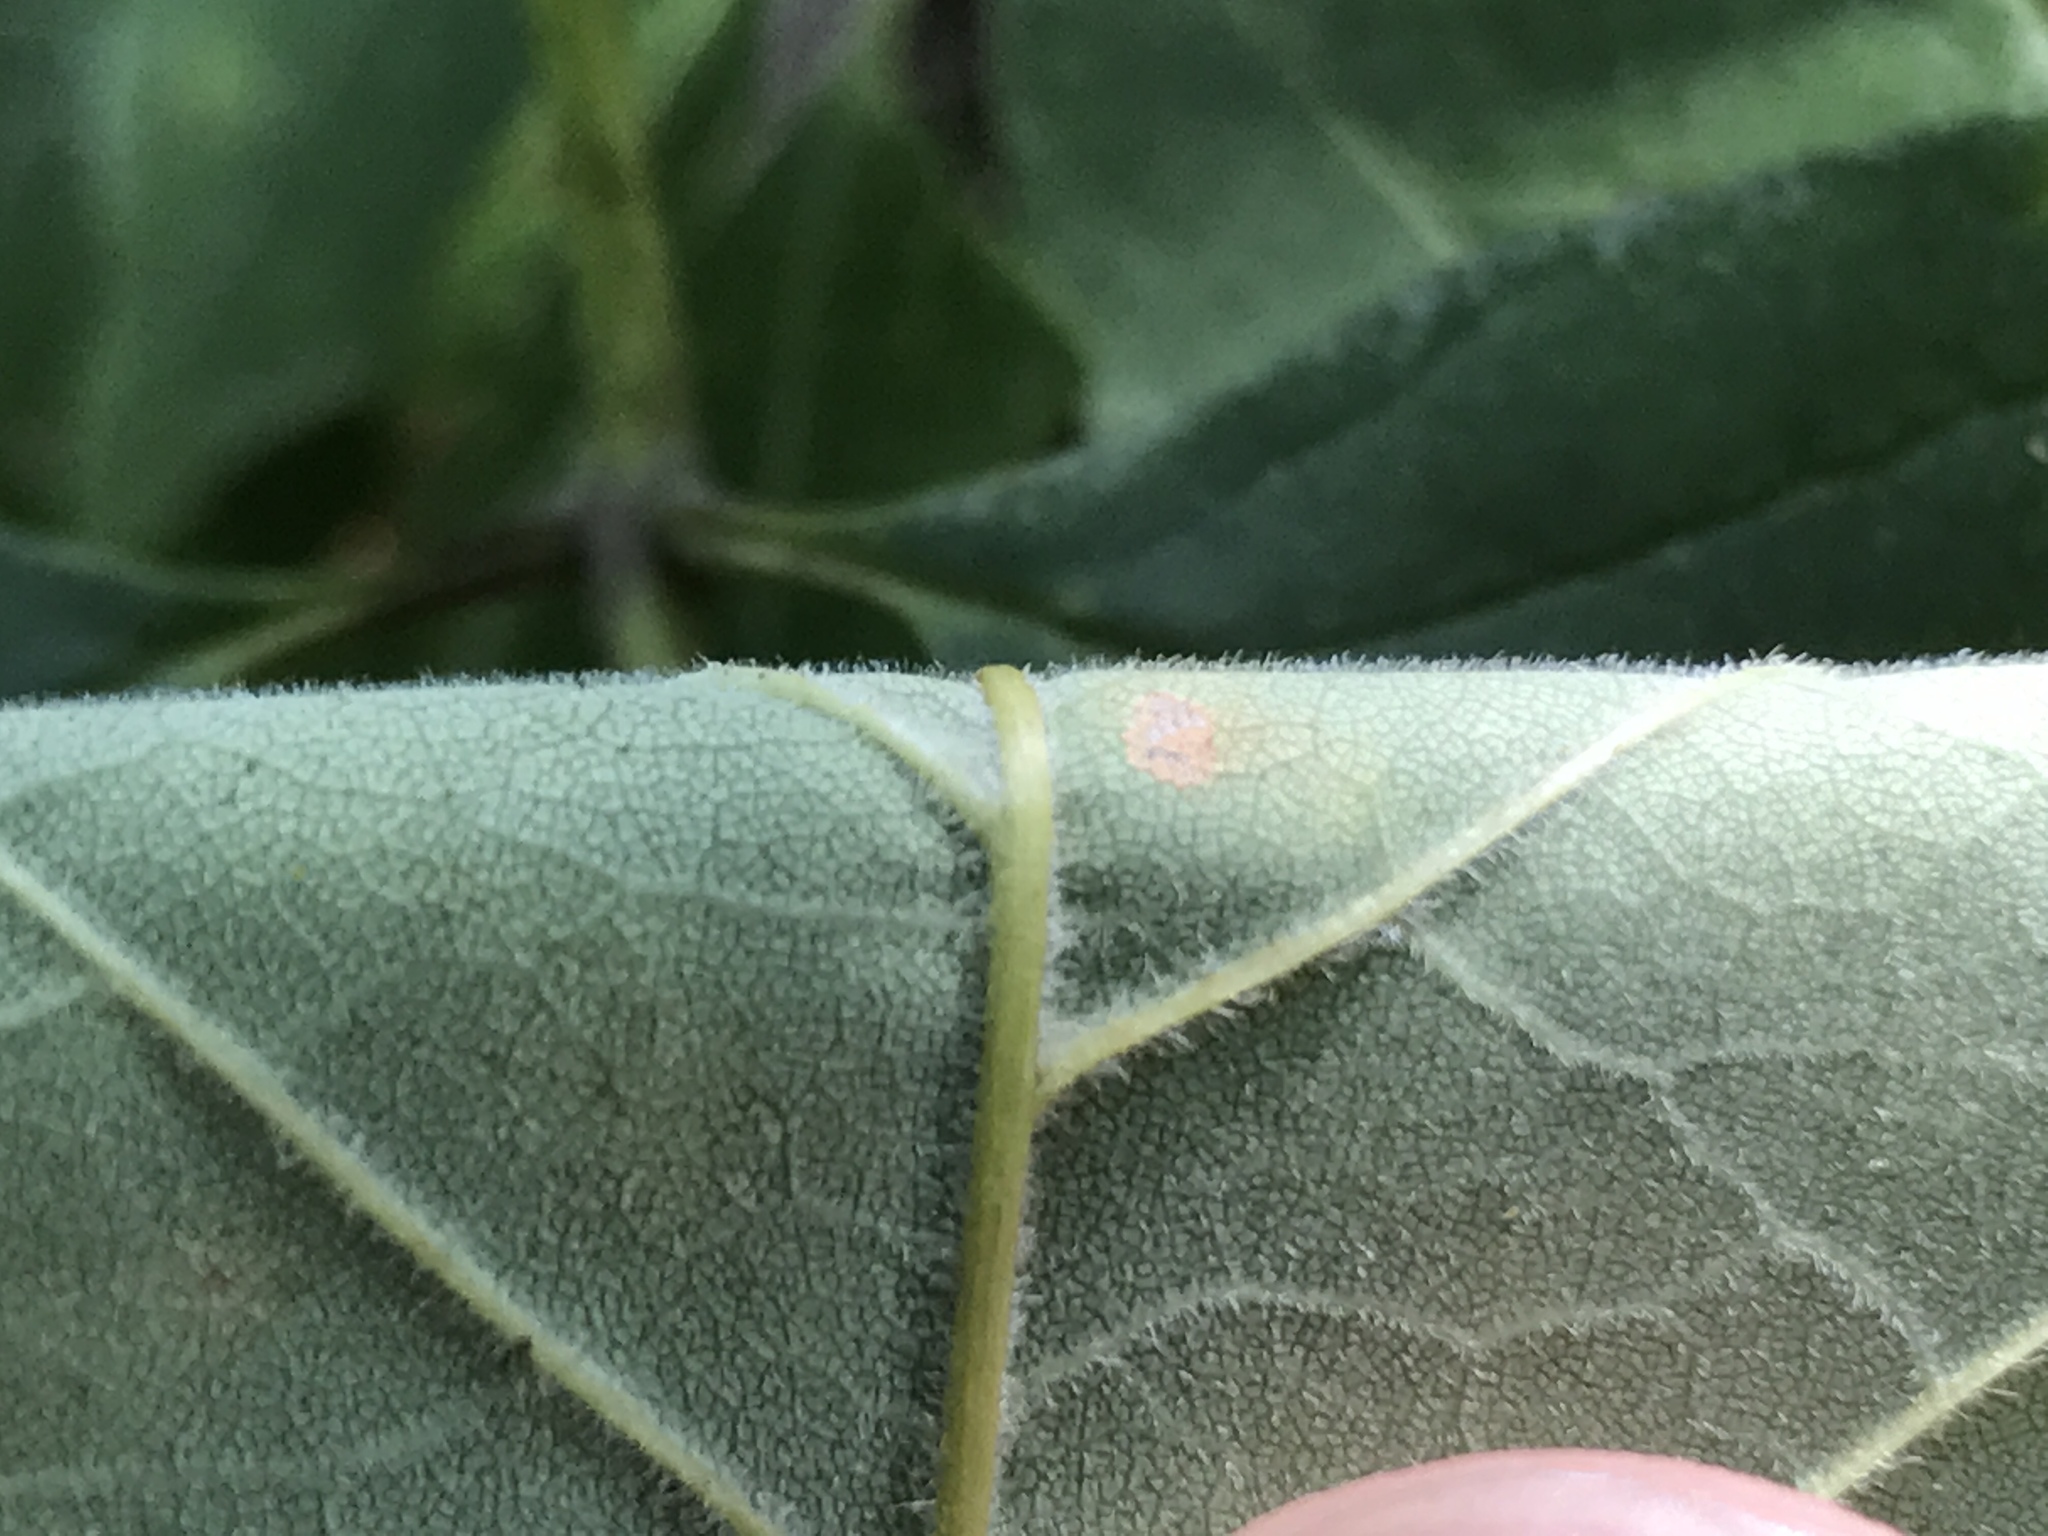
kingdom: Plantae
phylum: Tracheophyta
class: Magnoliopsida
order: Lamiales
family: Oleaceae
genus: Fraxinus
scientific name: Fraxinus americana
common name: White ash
